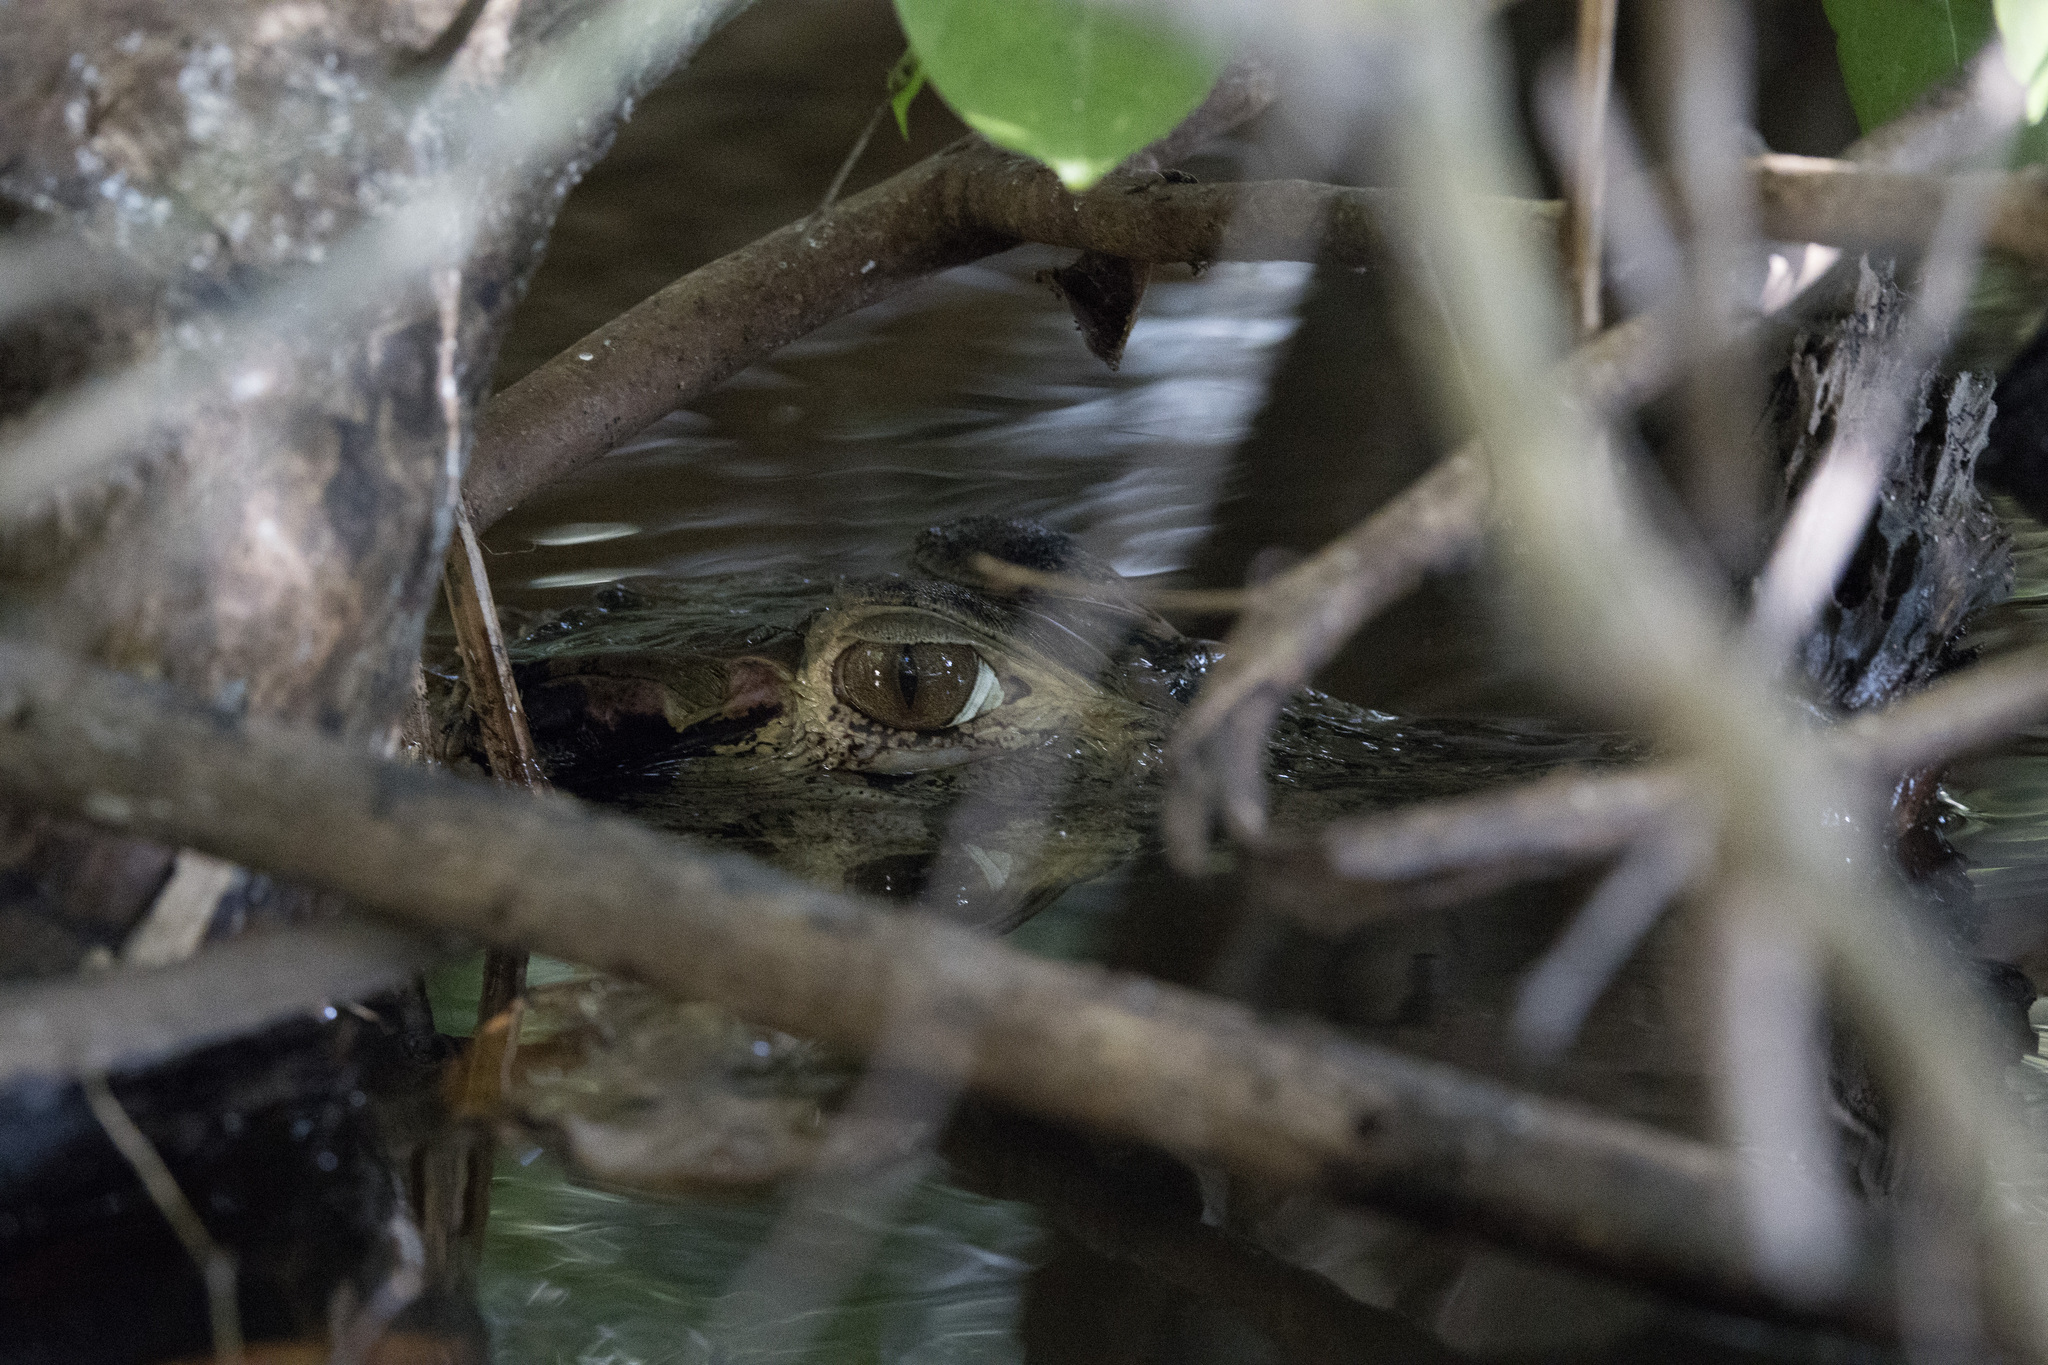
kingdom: Animalia
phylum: Chordata
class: Crocodylia
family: Alligatoridae
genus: Melanosuchus
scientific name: Melanosuchus niger
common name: Black caiman
